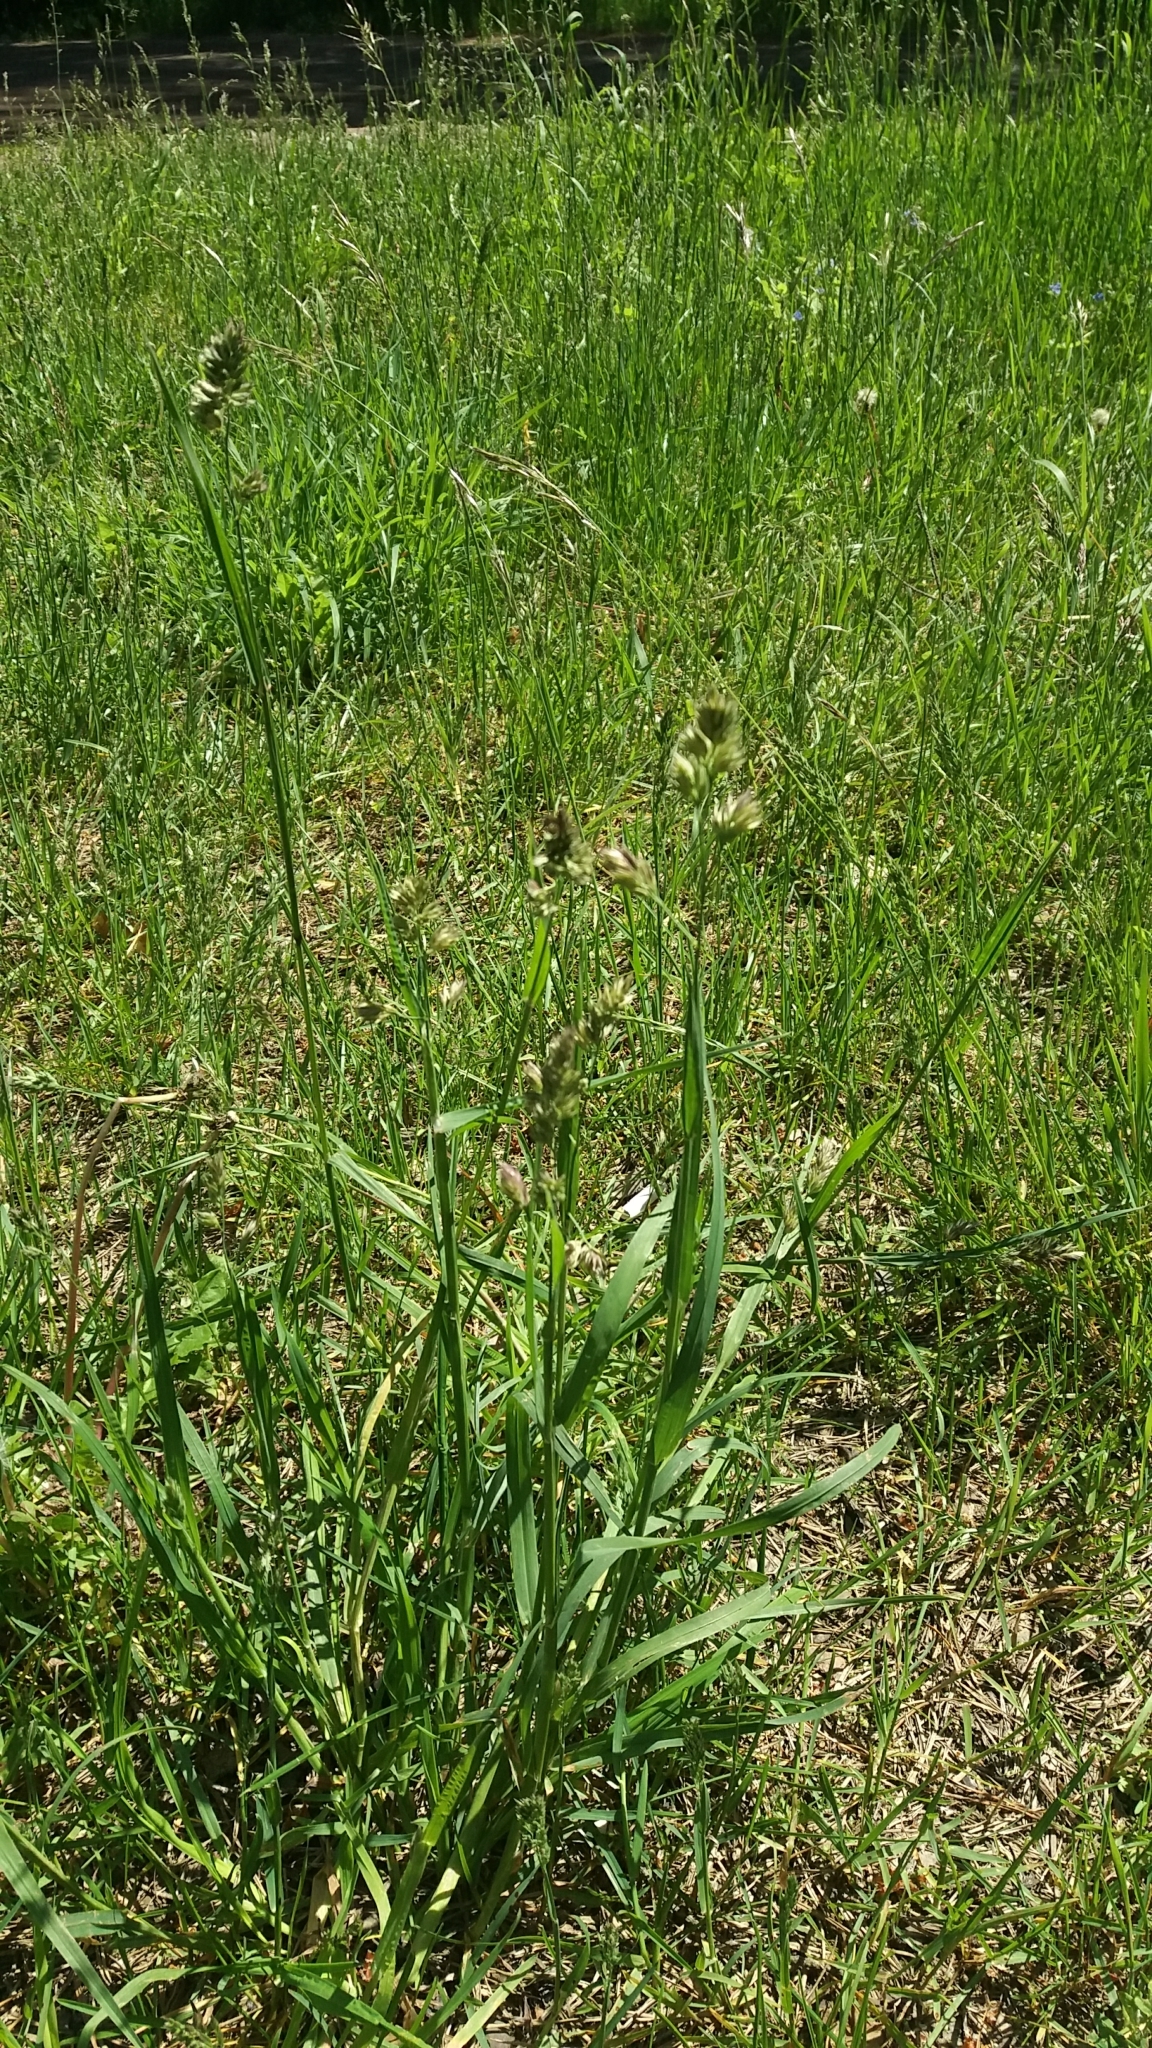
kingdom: Plantae
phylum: Tracheophyta
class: Liliopsida
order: Poales
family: Poaceae
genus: Dactylis
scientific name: Dactylis glomerata
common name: Orchardgrass
